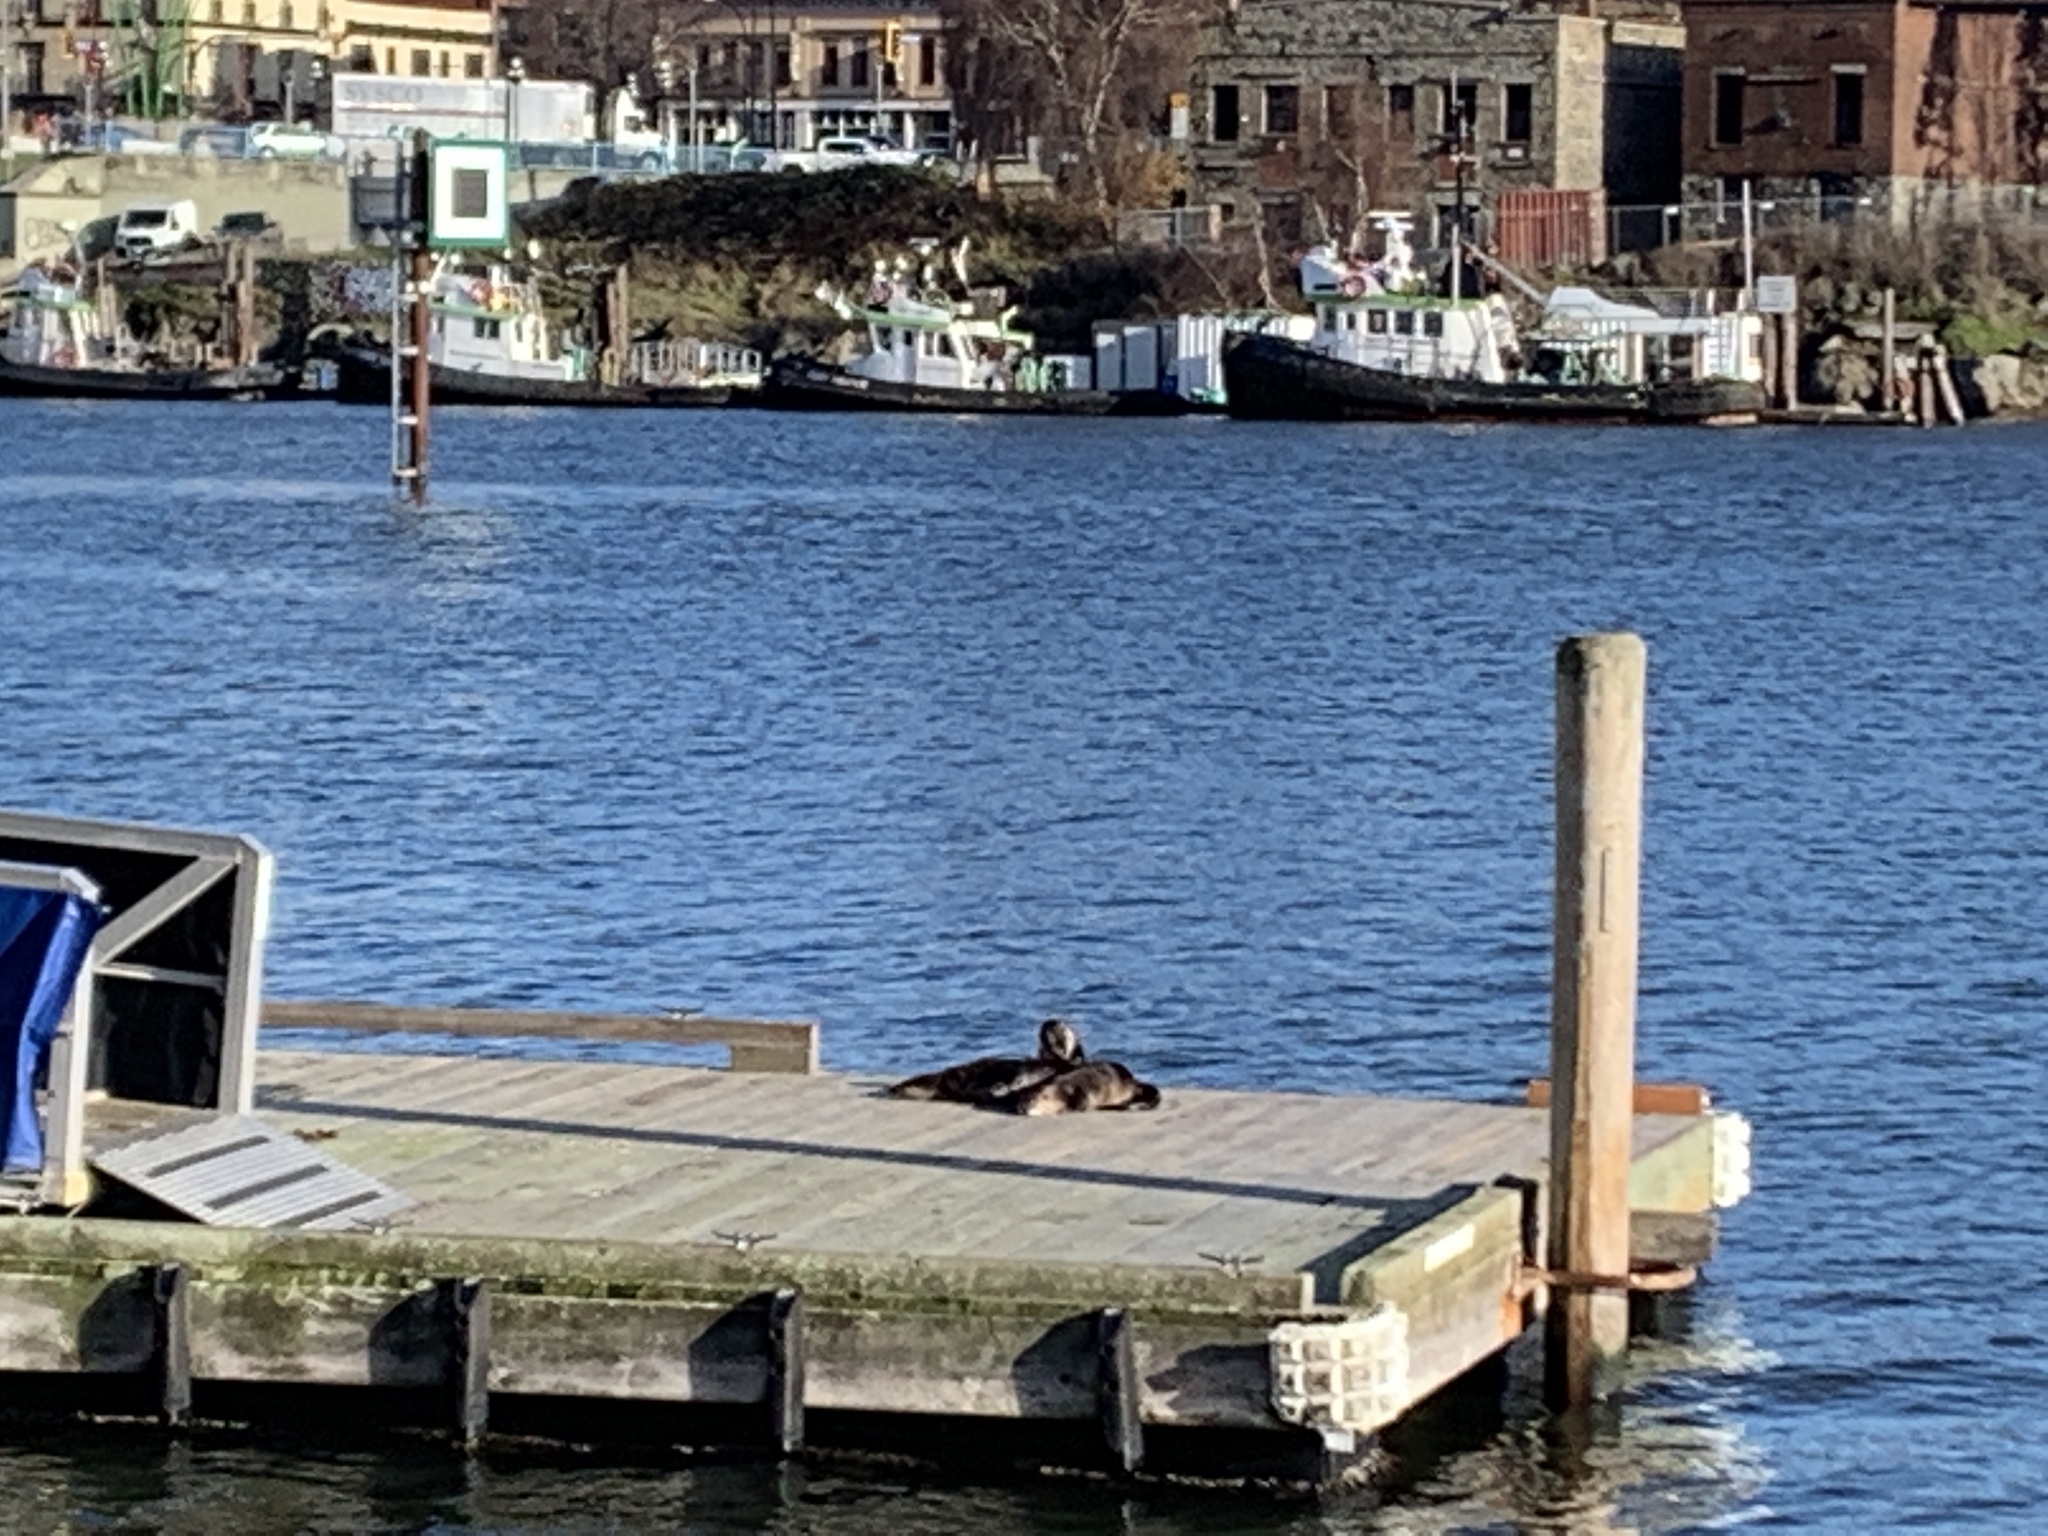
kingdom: Animalia
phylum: Chordata
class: Mammalia
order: Carnivora
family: Mustelidae
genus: Lontra
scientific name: Lontra canadensis
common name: North american river otter
